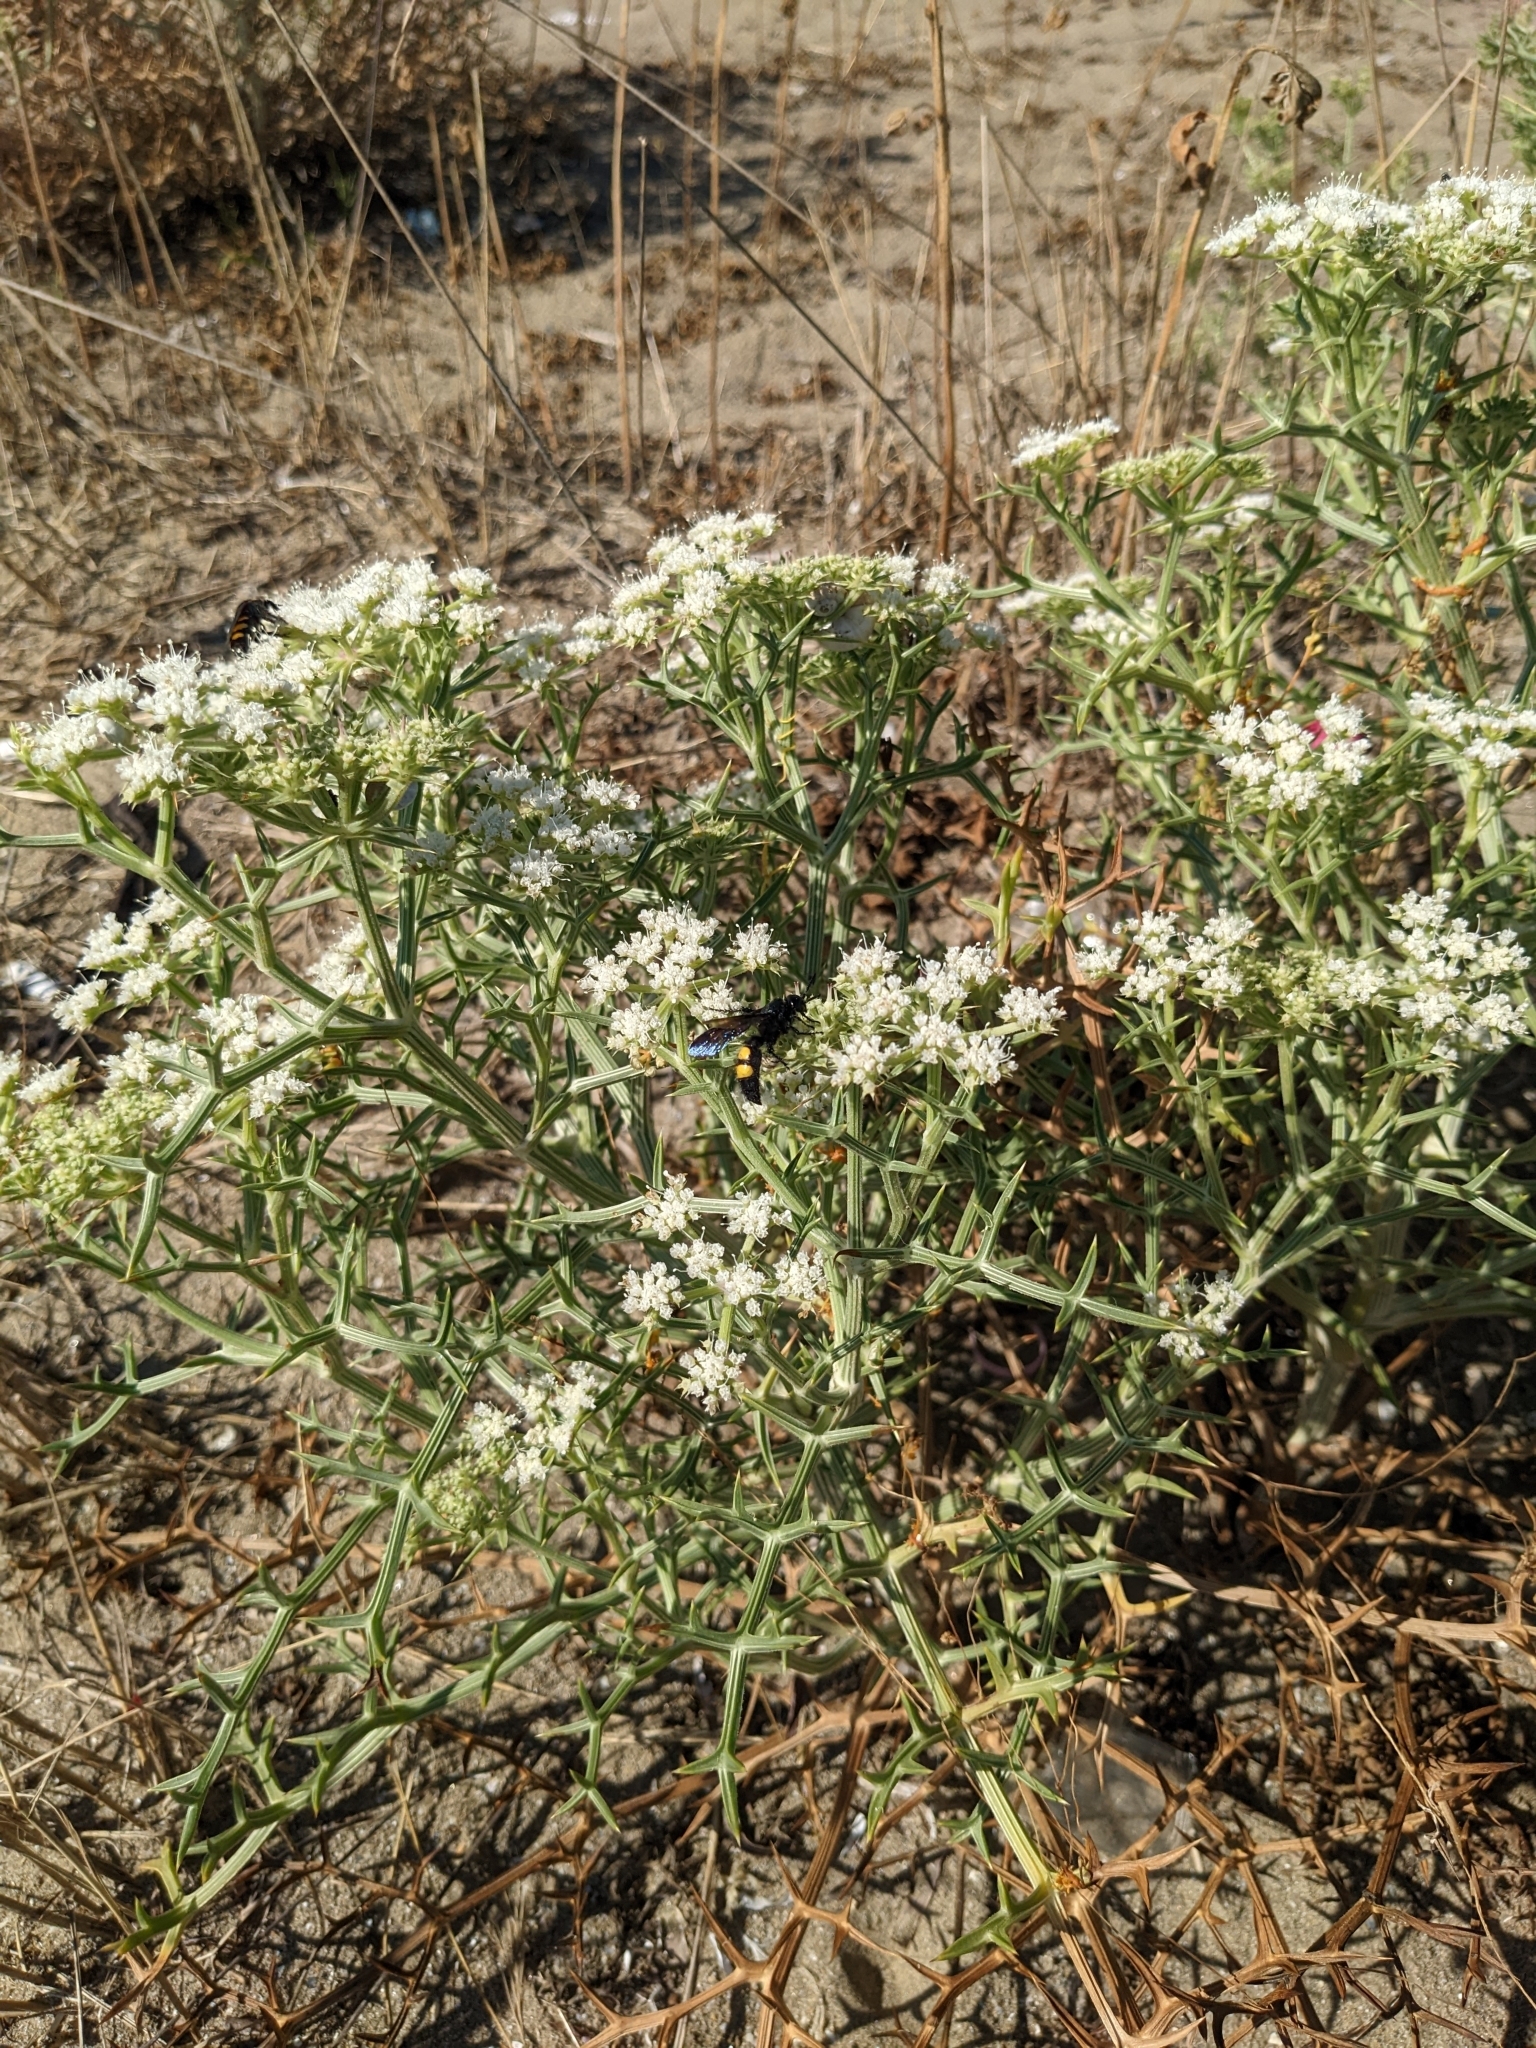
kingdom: Plantae
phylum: Tracheophyta
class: Magnoliopsida
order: Apiales
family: Apiaceae
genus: Echinophora
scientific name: Echinophora spinosa
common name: Prickly samphire
